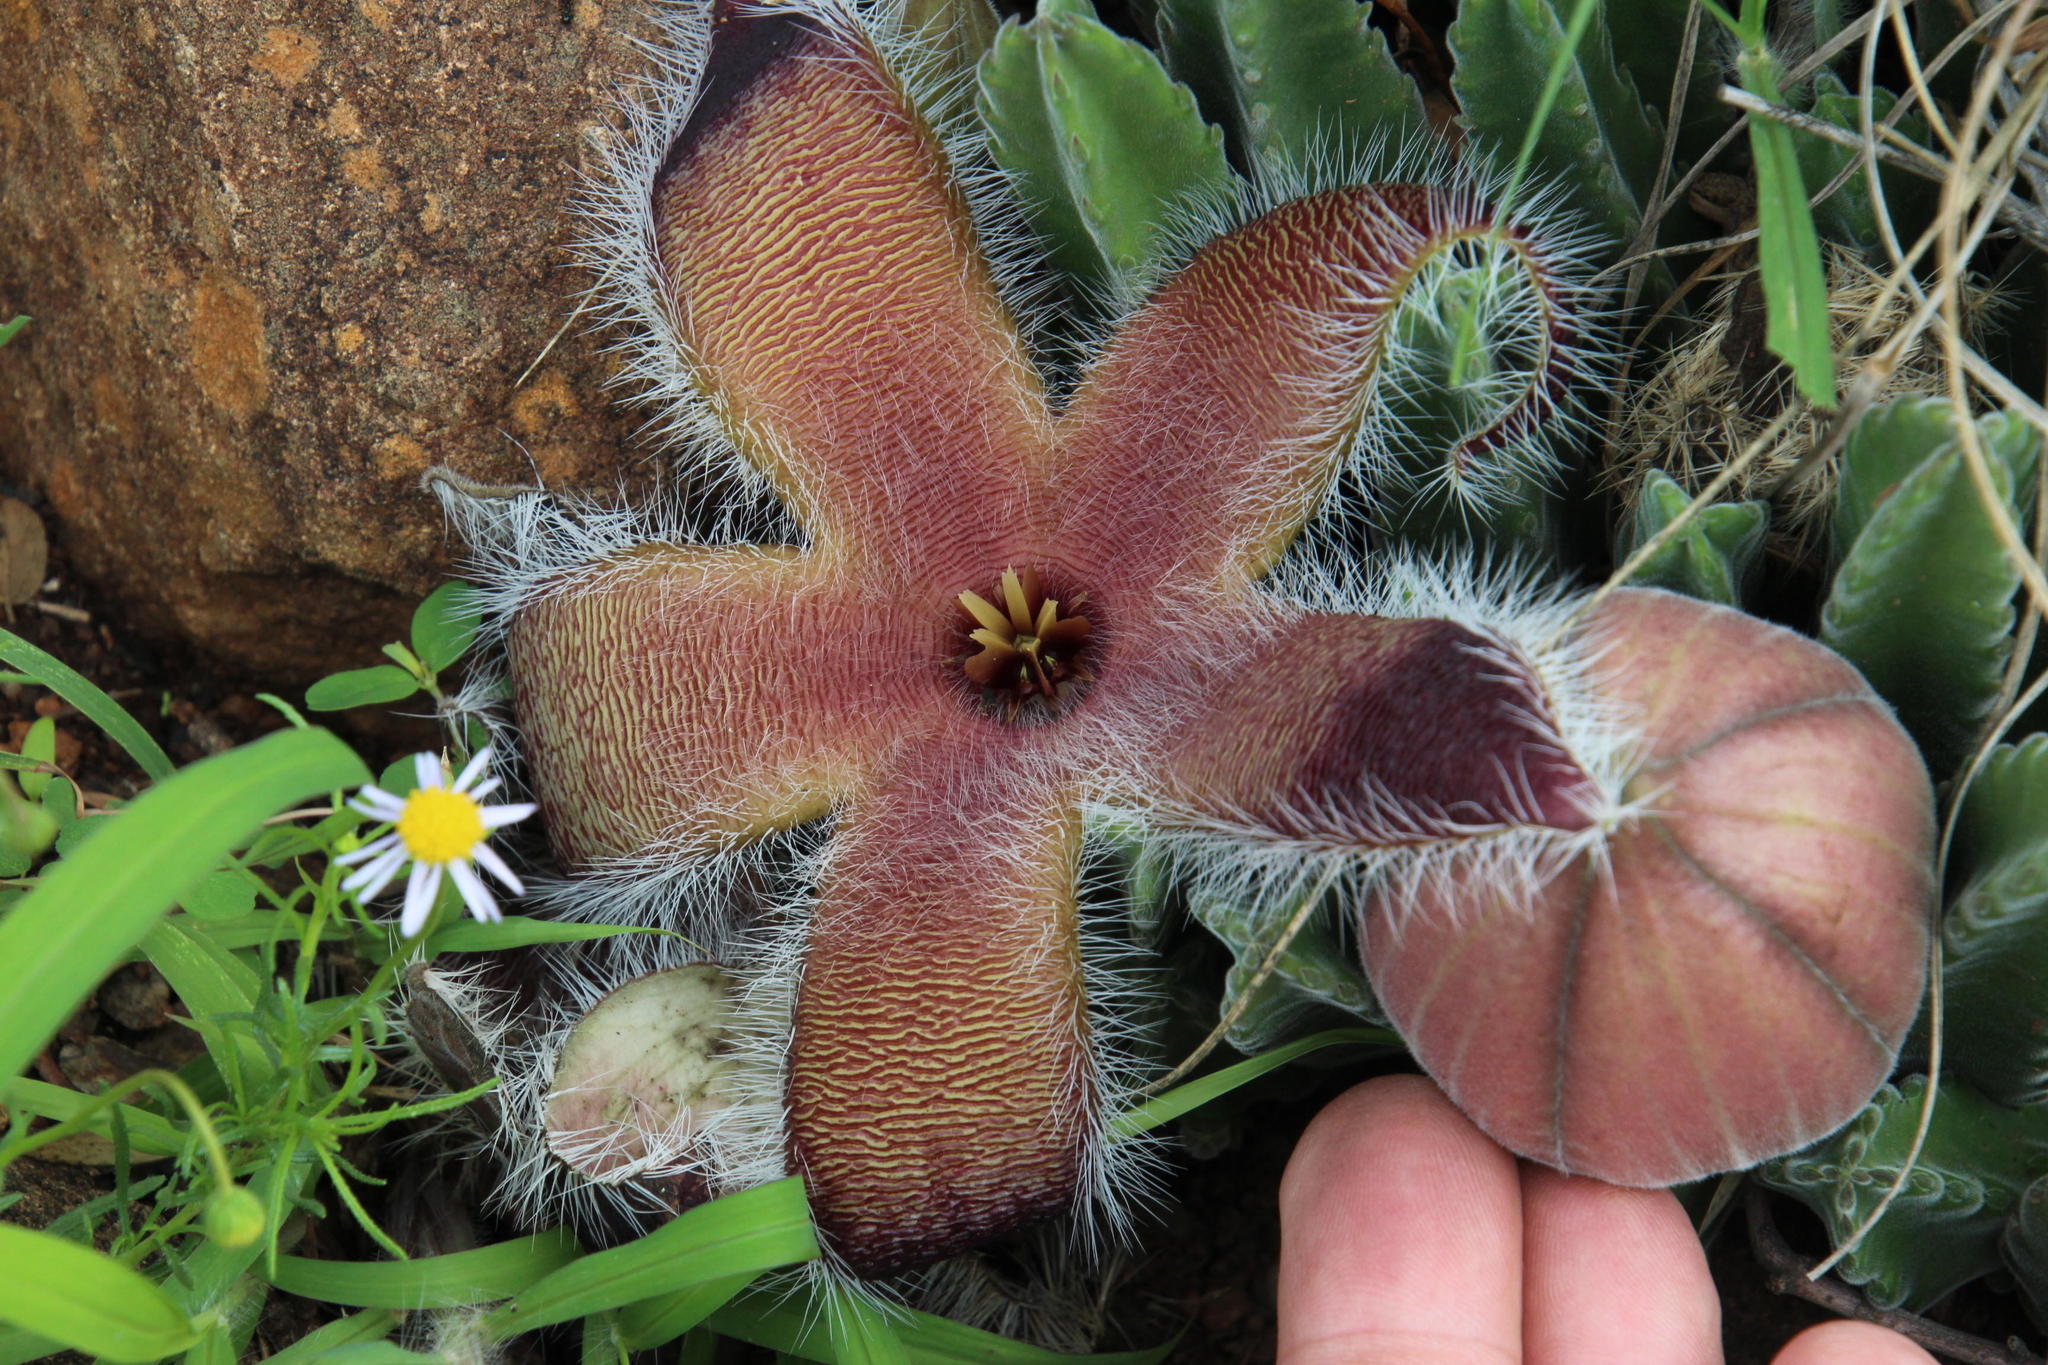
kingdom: Plantae
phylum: Tracheophyta
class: Magnoliopsida
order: Gentianales
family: Apocynaceae
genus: Ceropegia
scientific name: Ceropegia grandiflora
